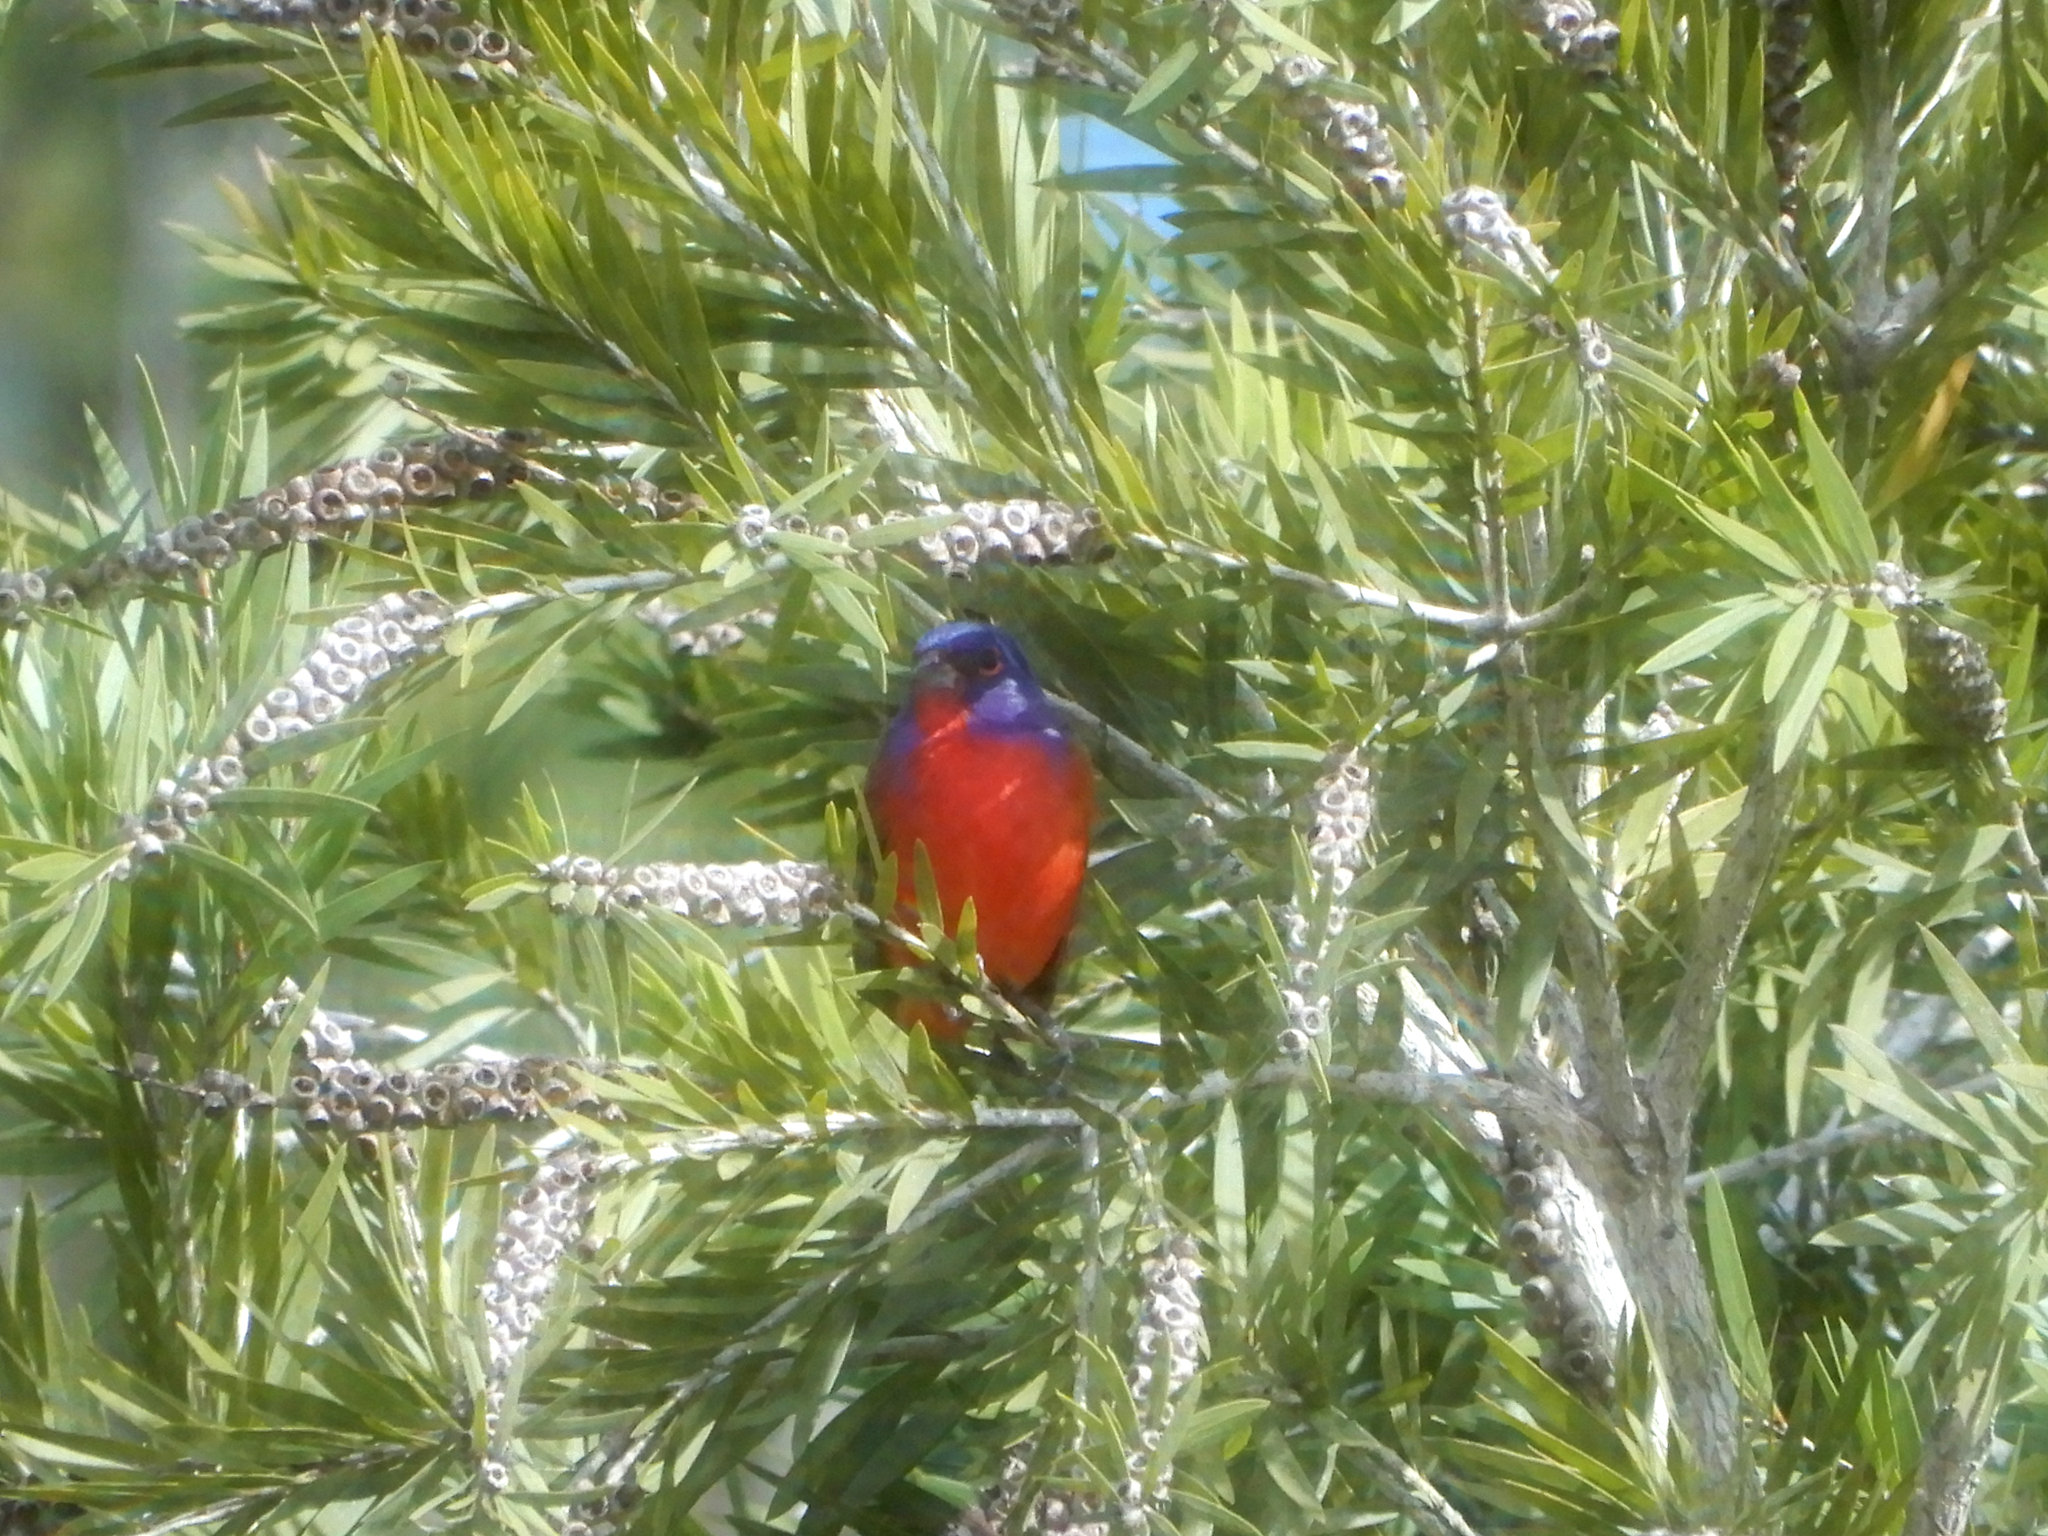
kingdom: Animalia
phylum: Chordata
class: Aves
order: Passeriformes
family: Cardinalidae
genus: Passerina
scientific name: Passerina ciris
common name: Painted bunting
